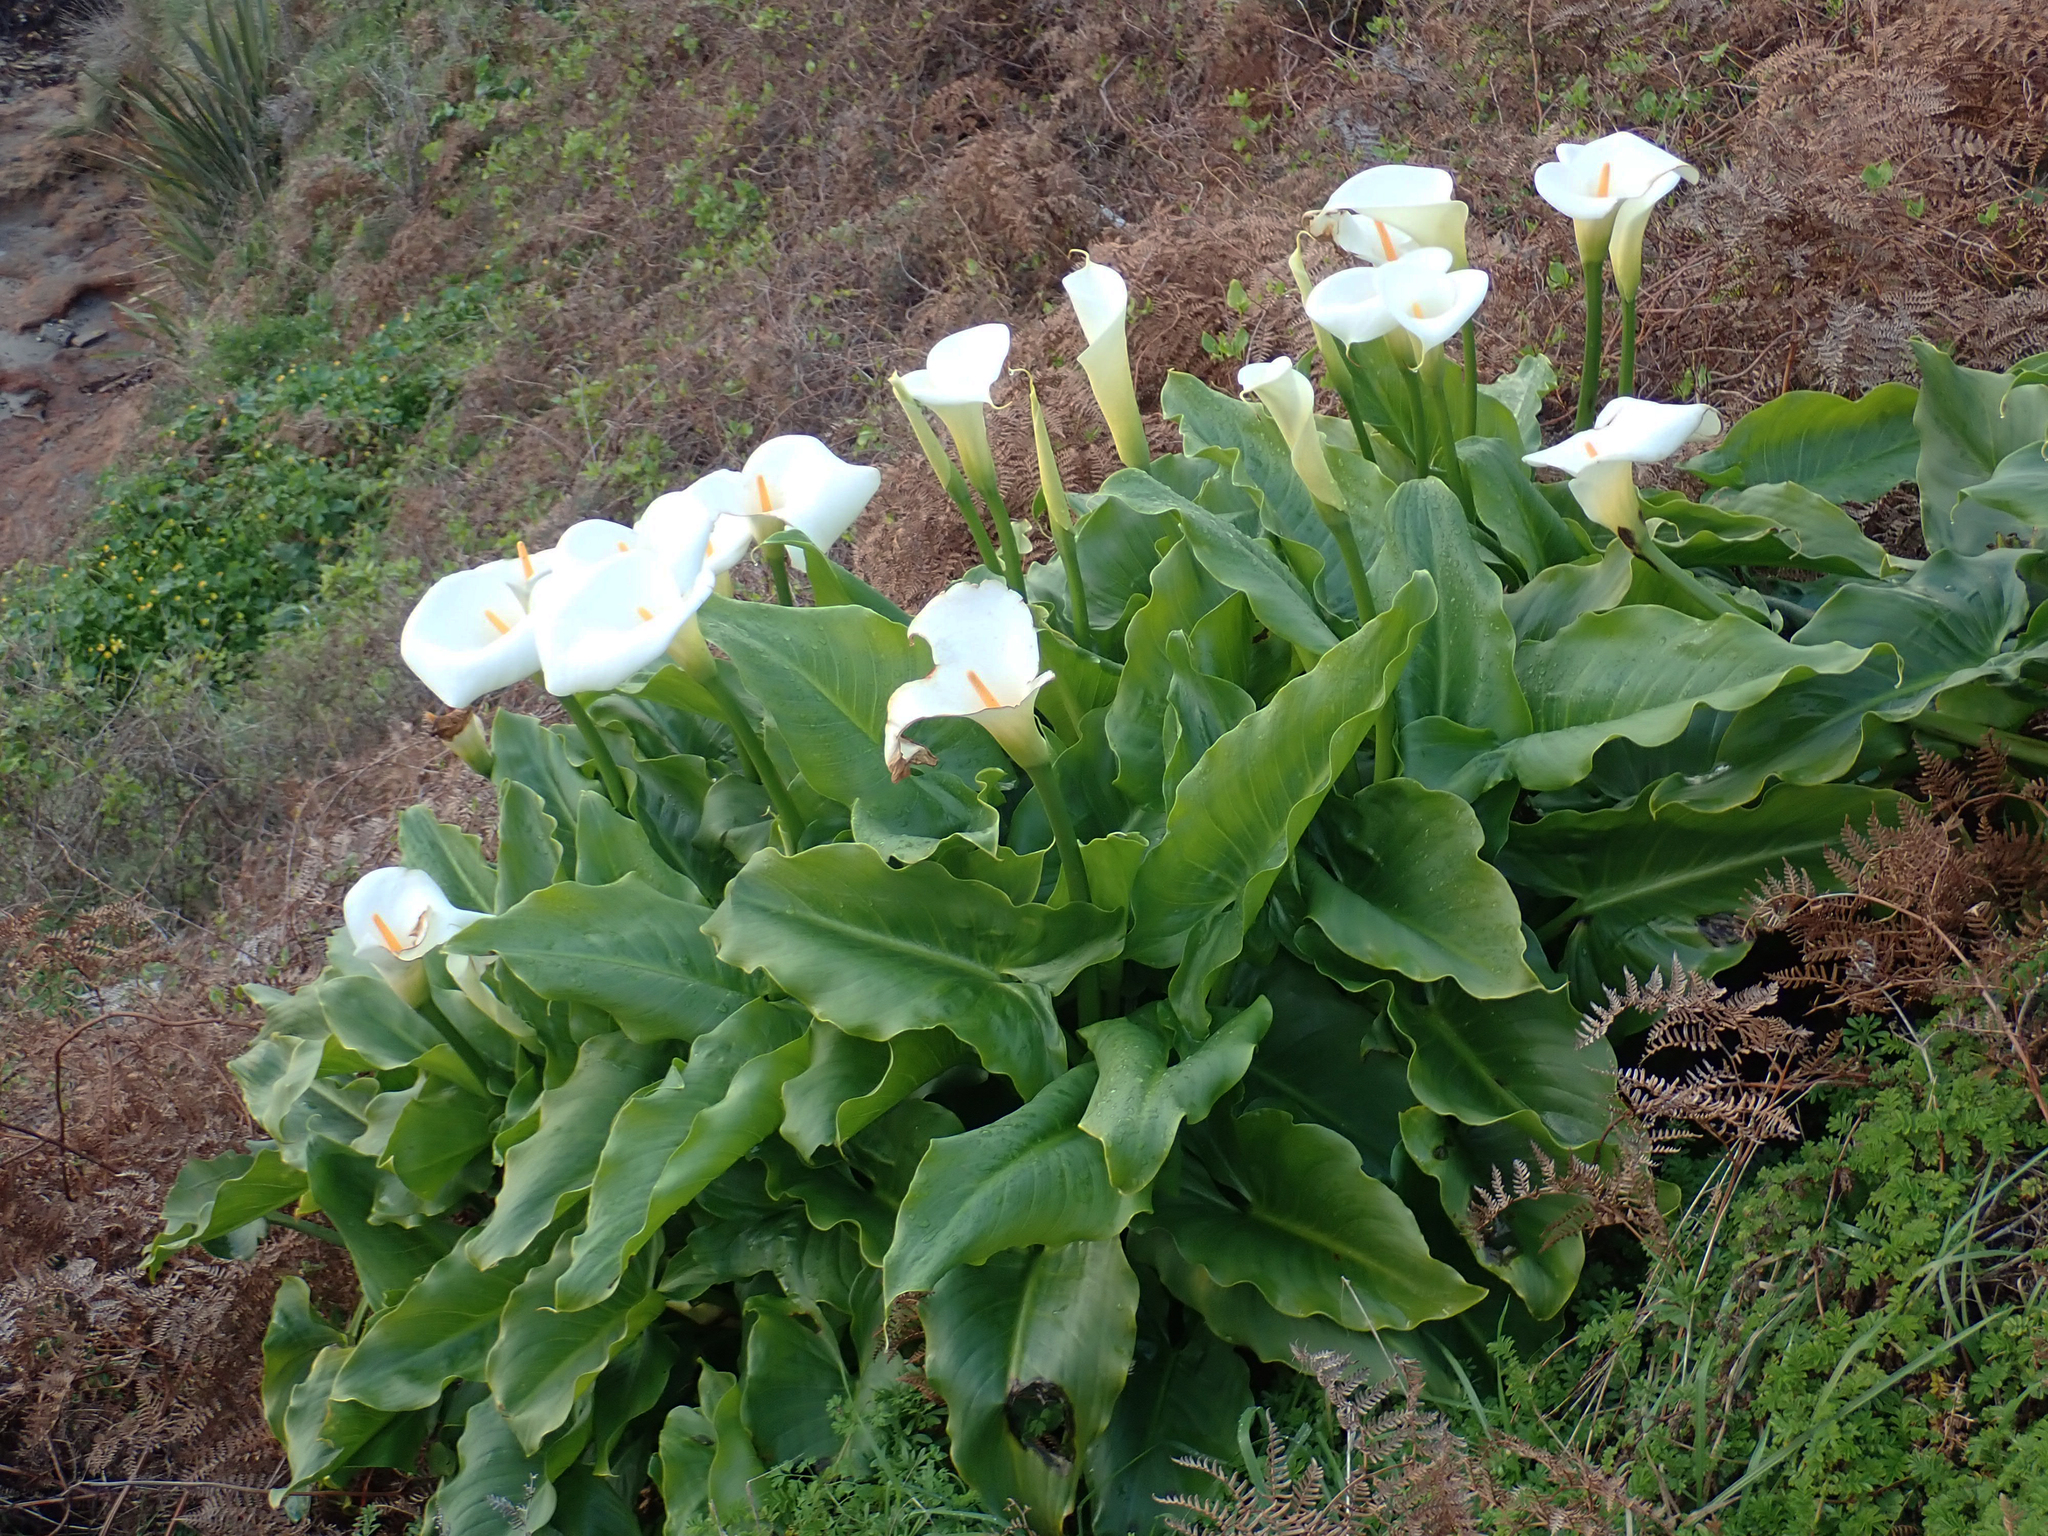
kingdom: Plantae
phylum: Tracheophyta
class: Liliopsida
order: Alismatales
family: Araceae
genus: Zantedeschia
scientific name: Zantedeschia aethiopica
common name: Altar-lily
